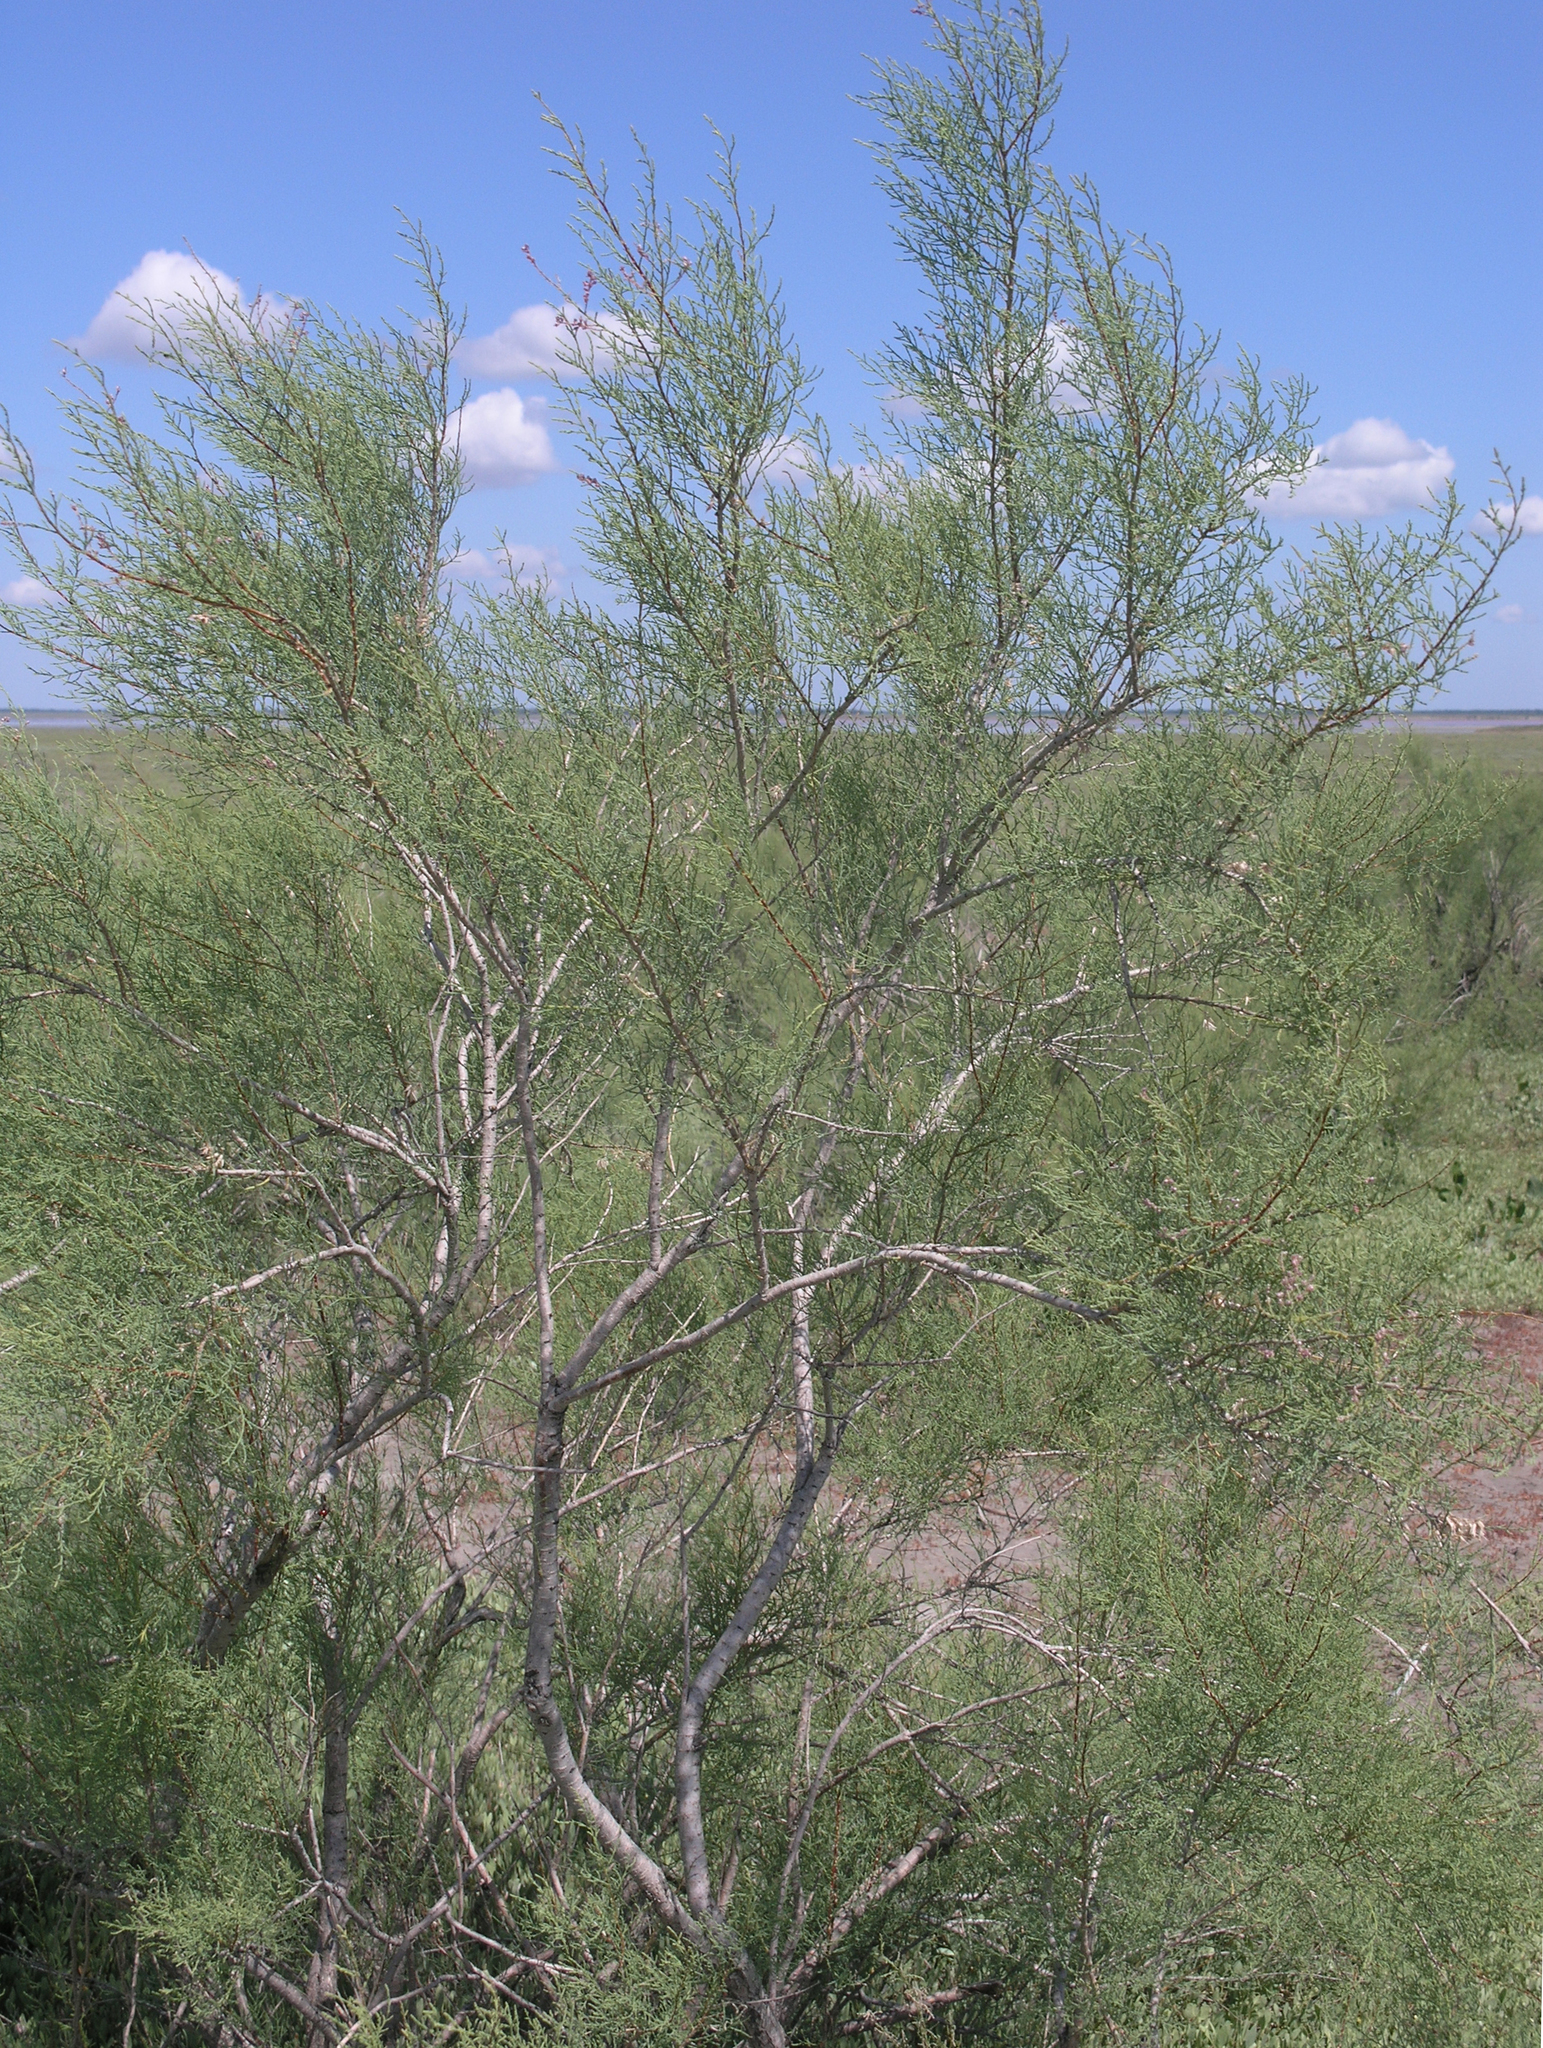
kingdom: Plantae
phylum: Tracheophyta
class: Magnoliopsida
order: Caryophyllales
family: Tamaricaceae
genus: Tamarix
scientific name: Tamarix gracilis
